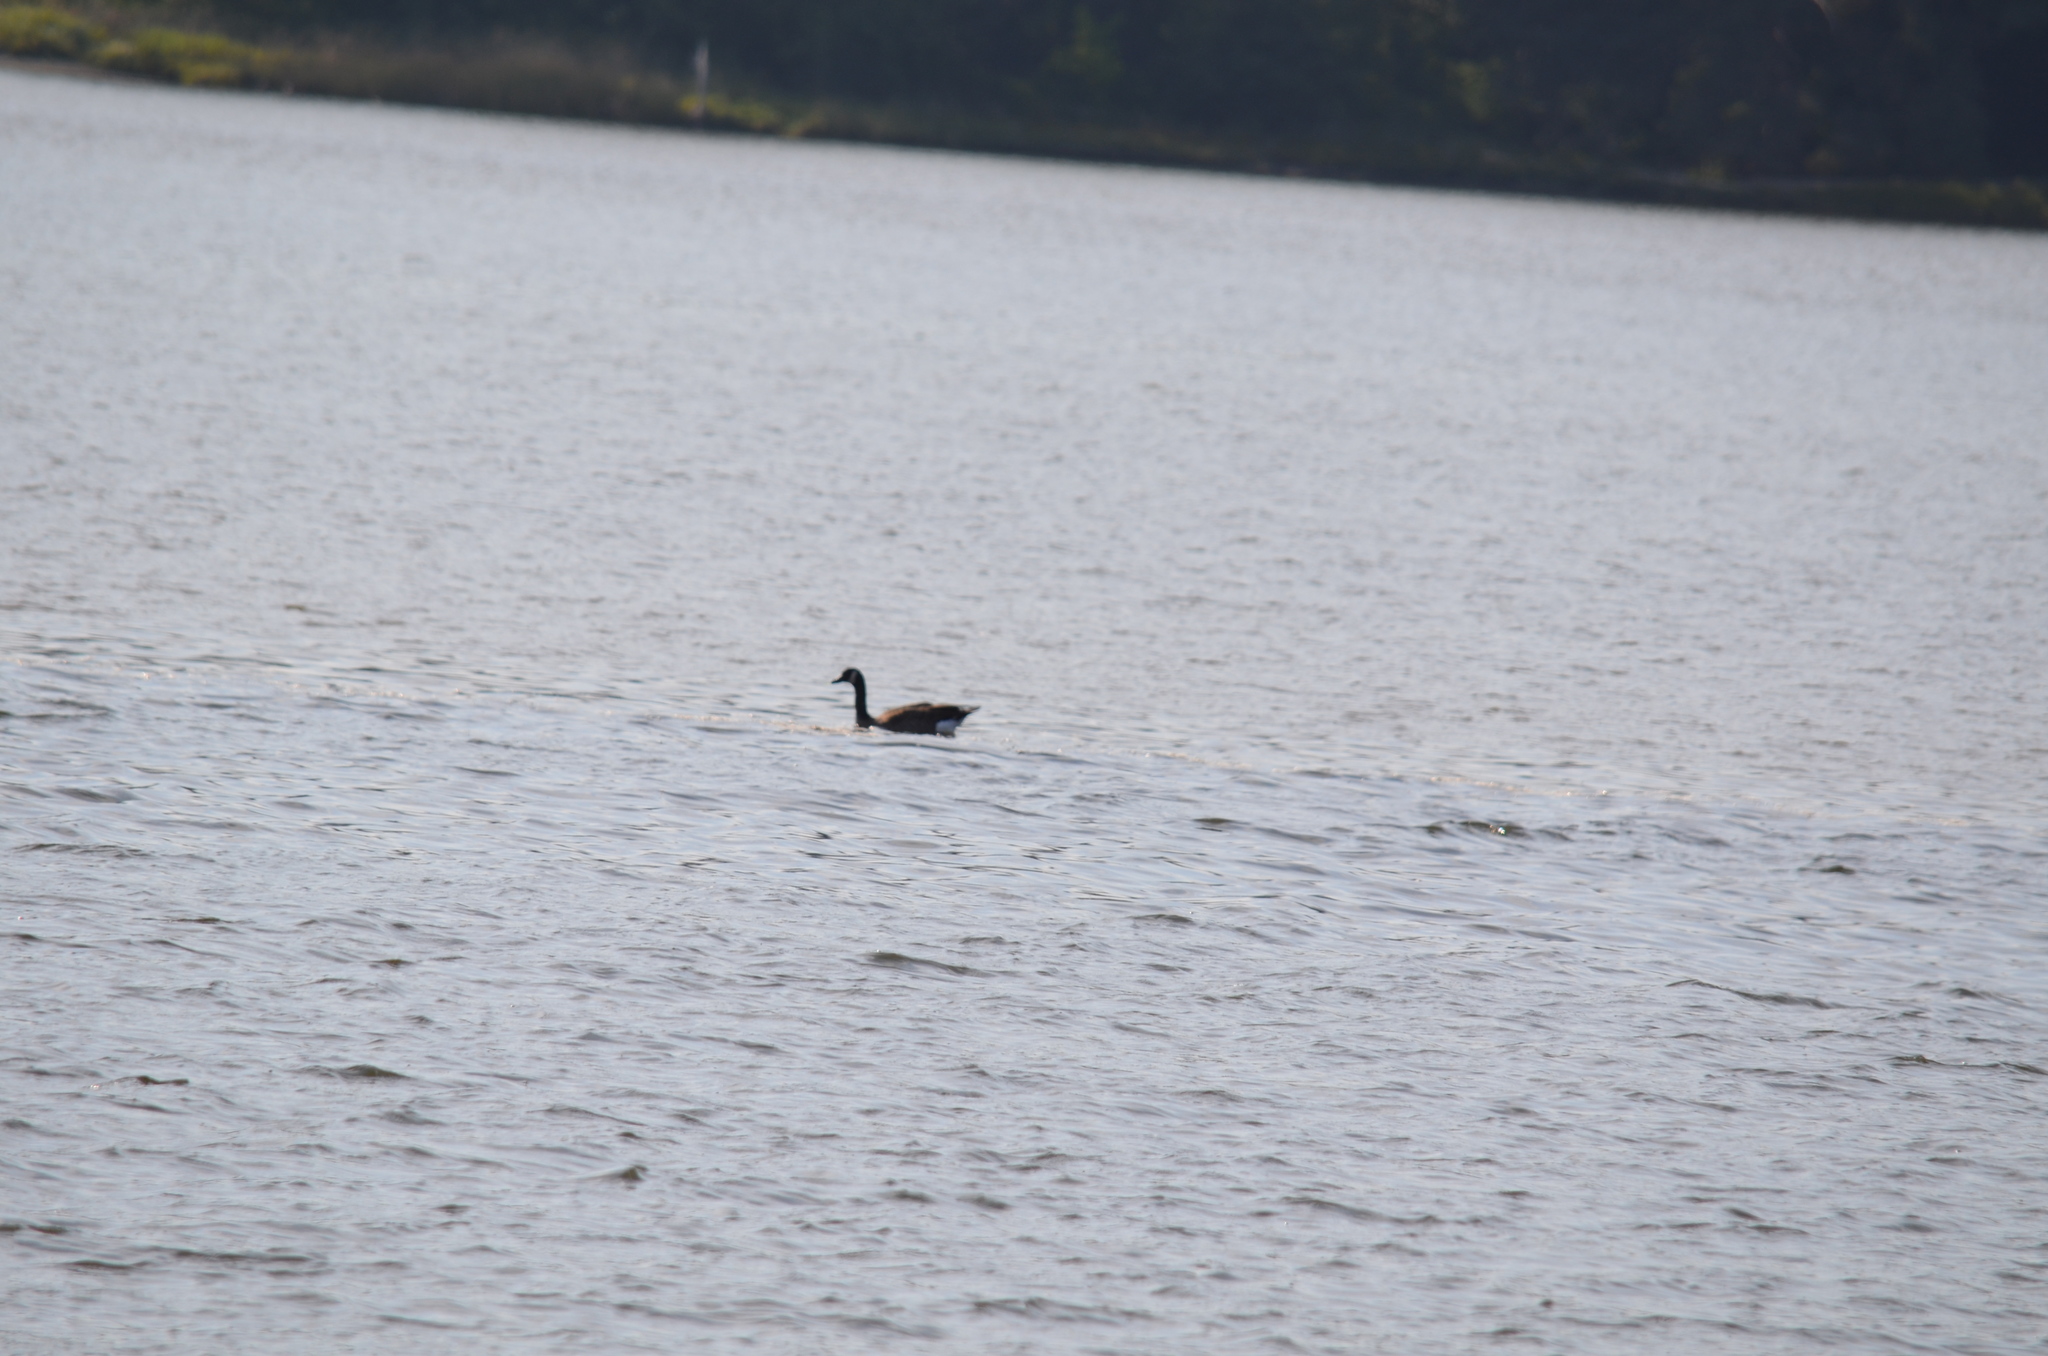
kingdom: Animalia
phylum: Chordata
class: Aves
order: Anseriformes
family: Anatidae
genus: Branta
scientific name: Branta canadensis
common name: Canada goose
